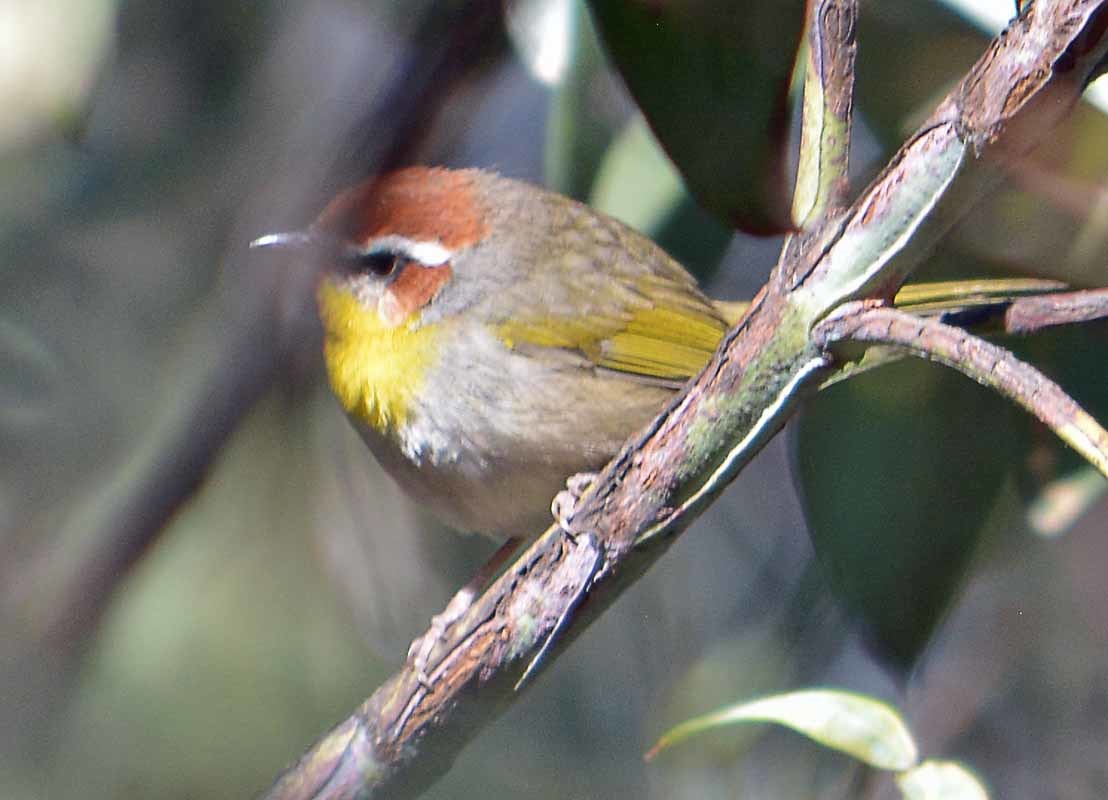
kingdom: Animalia
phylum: Chordata
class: Aves
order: Passeriformes
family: Parulidae
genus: Basileuterus
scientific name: Basileuterus rufifrons
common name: Rufous-capped warbler
